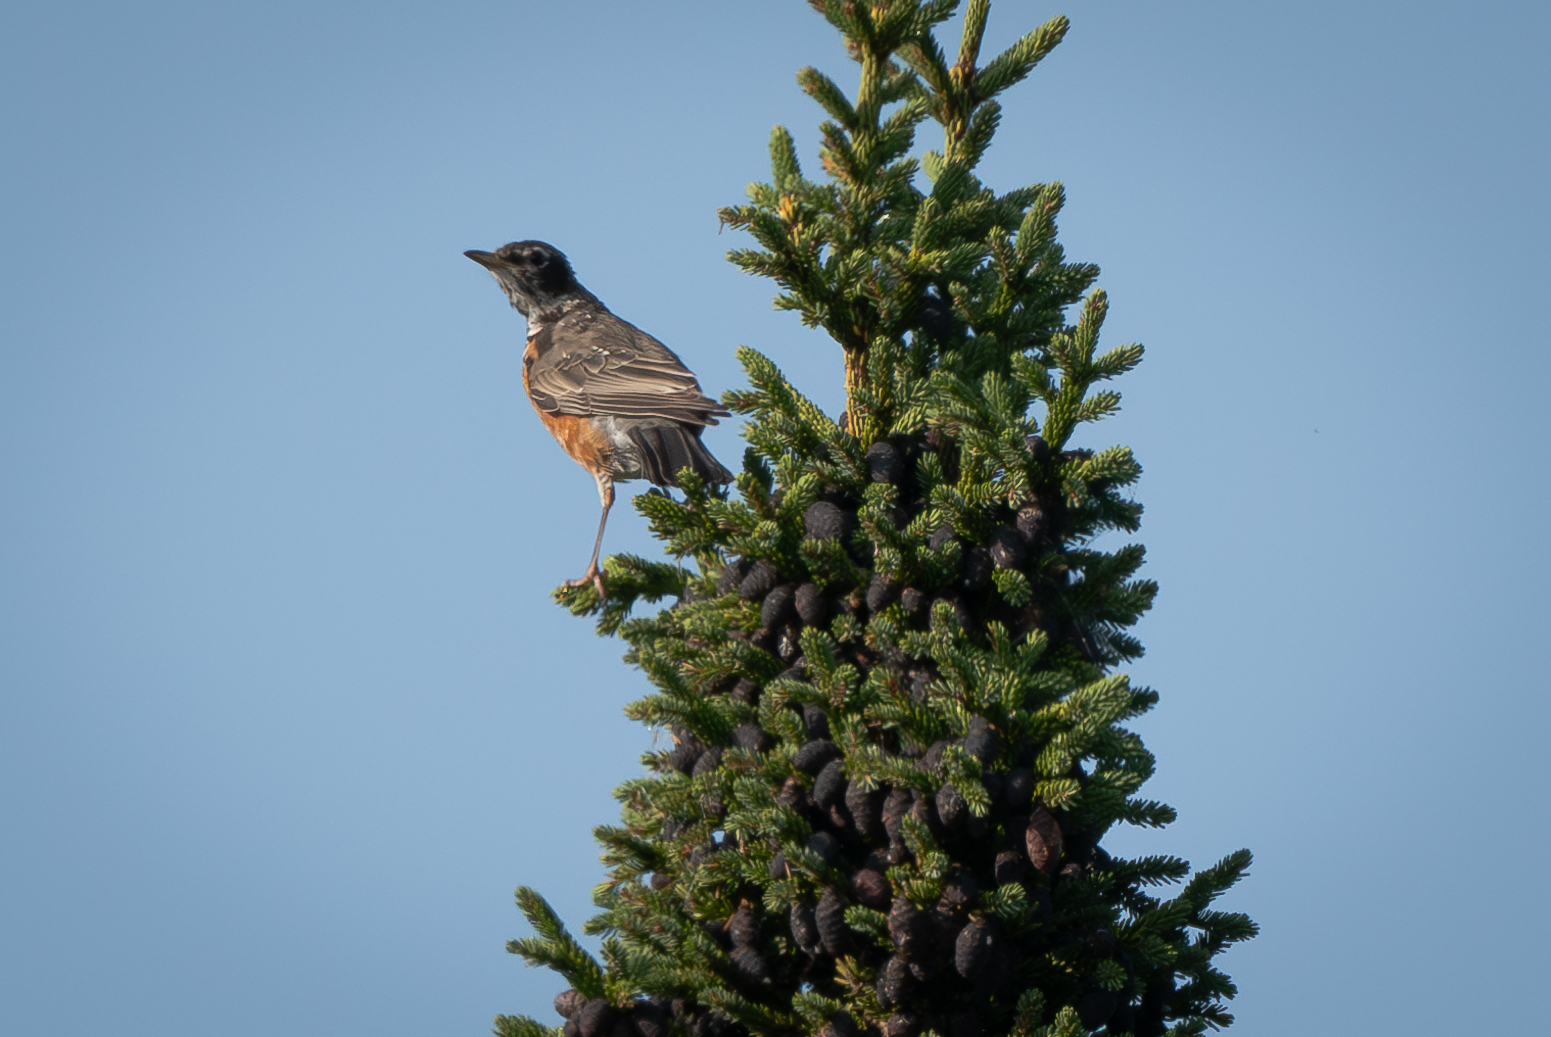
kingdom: Animalia
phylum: Chordata
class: Aves
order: Passeriformes
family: Turdidae
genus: Turdus
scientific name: Turdus migratorius
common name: American robin
